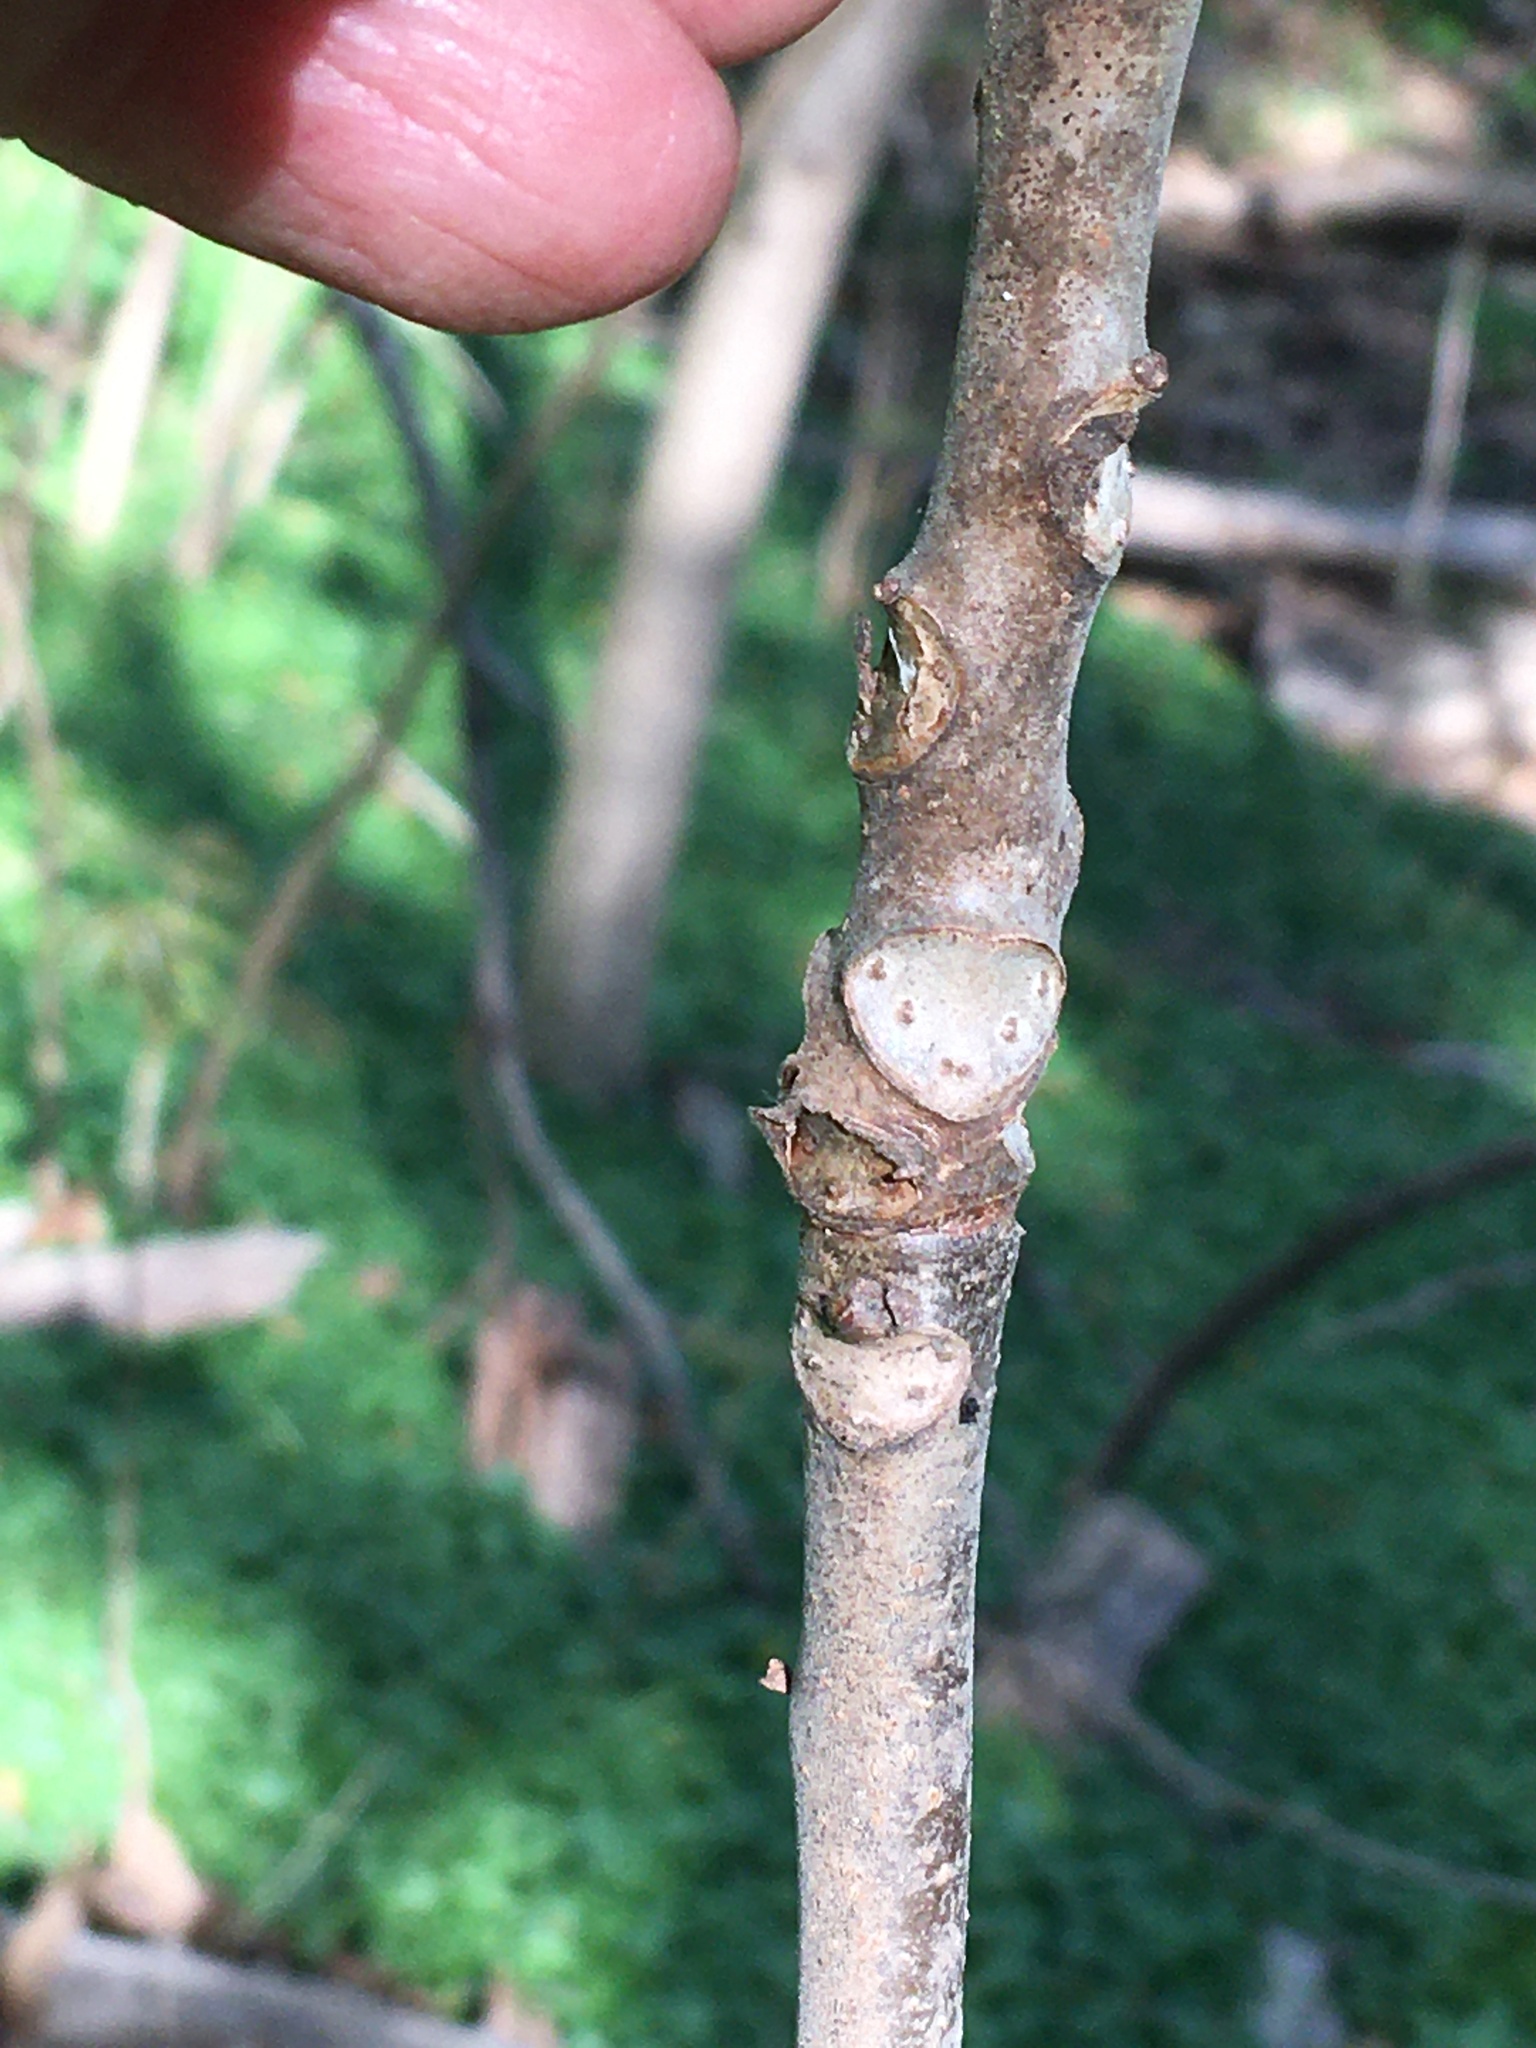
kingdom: Plantae
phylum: Tracheophyta
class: Magnoliopsida
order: Sapindales
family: Meliaceae
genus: Toona
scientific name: Toona sinensis
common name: Red toon
